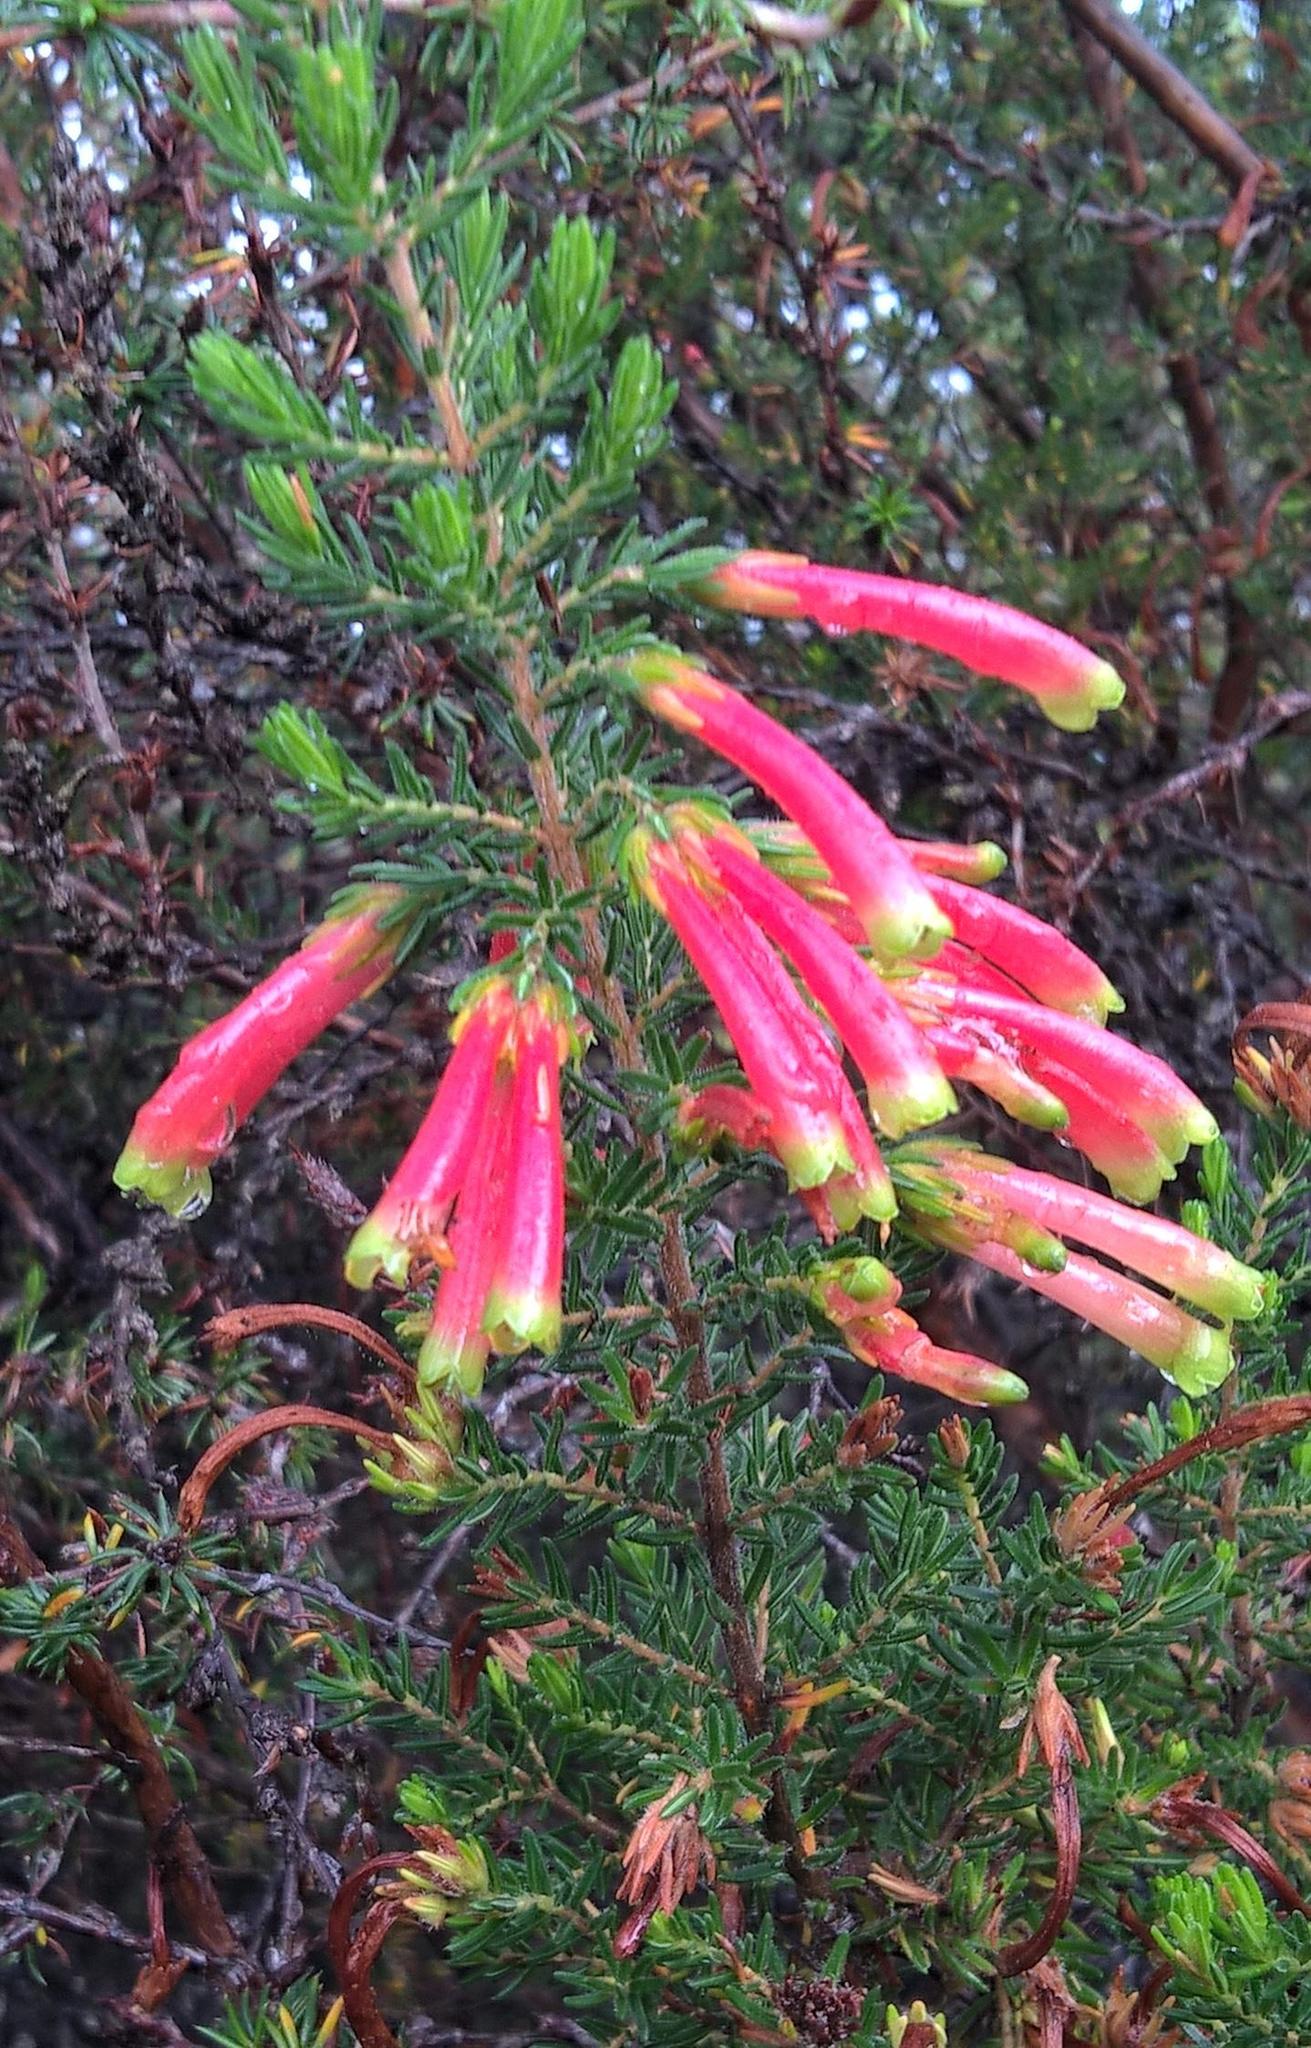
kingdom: Plantae
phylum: Tracheophyta
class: Magnoliopsida
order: Ericales
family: Ericaceae
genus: Erica
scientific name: Erica discolor
